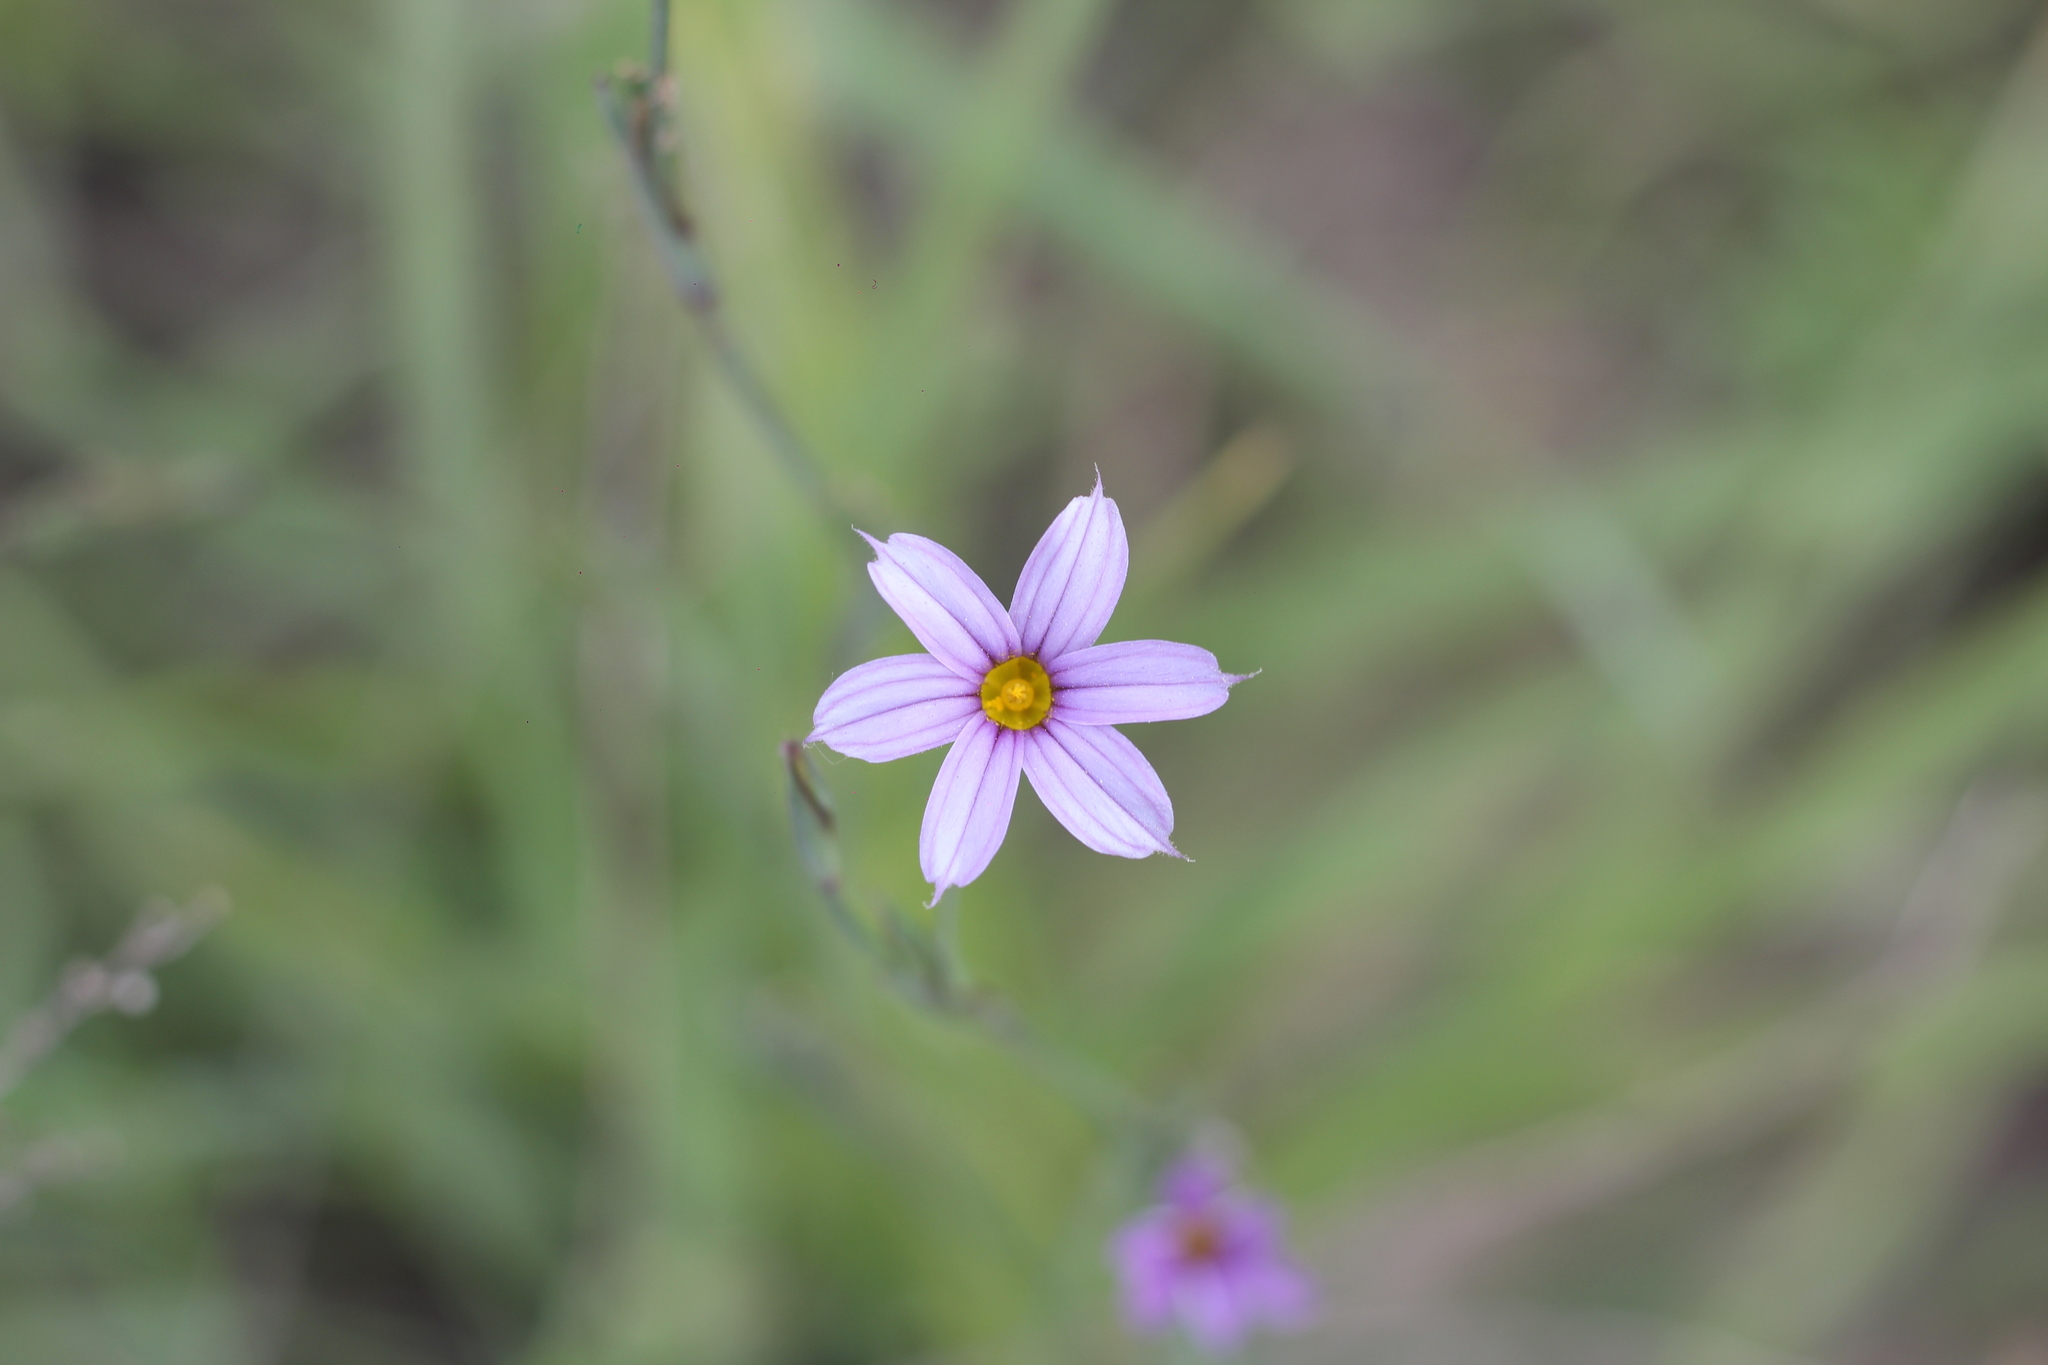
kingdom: Plantae
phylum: Tracheophyta
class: Liliopsida
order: Asparagales
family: Iridaceae
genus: Sisyrinchium
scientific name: Sisyrinchium platense
